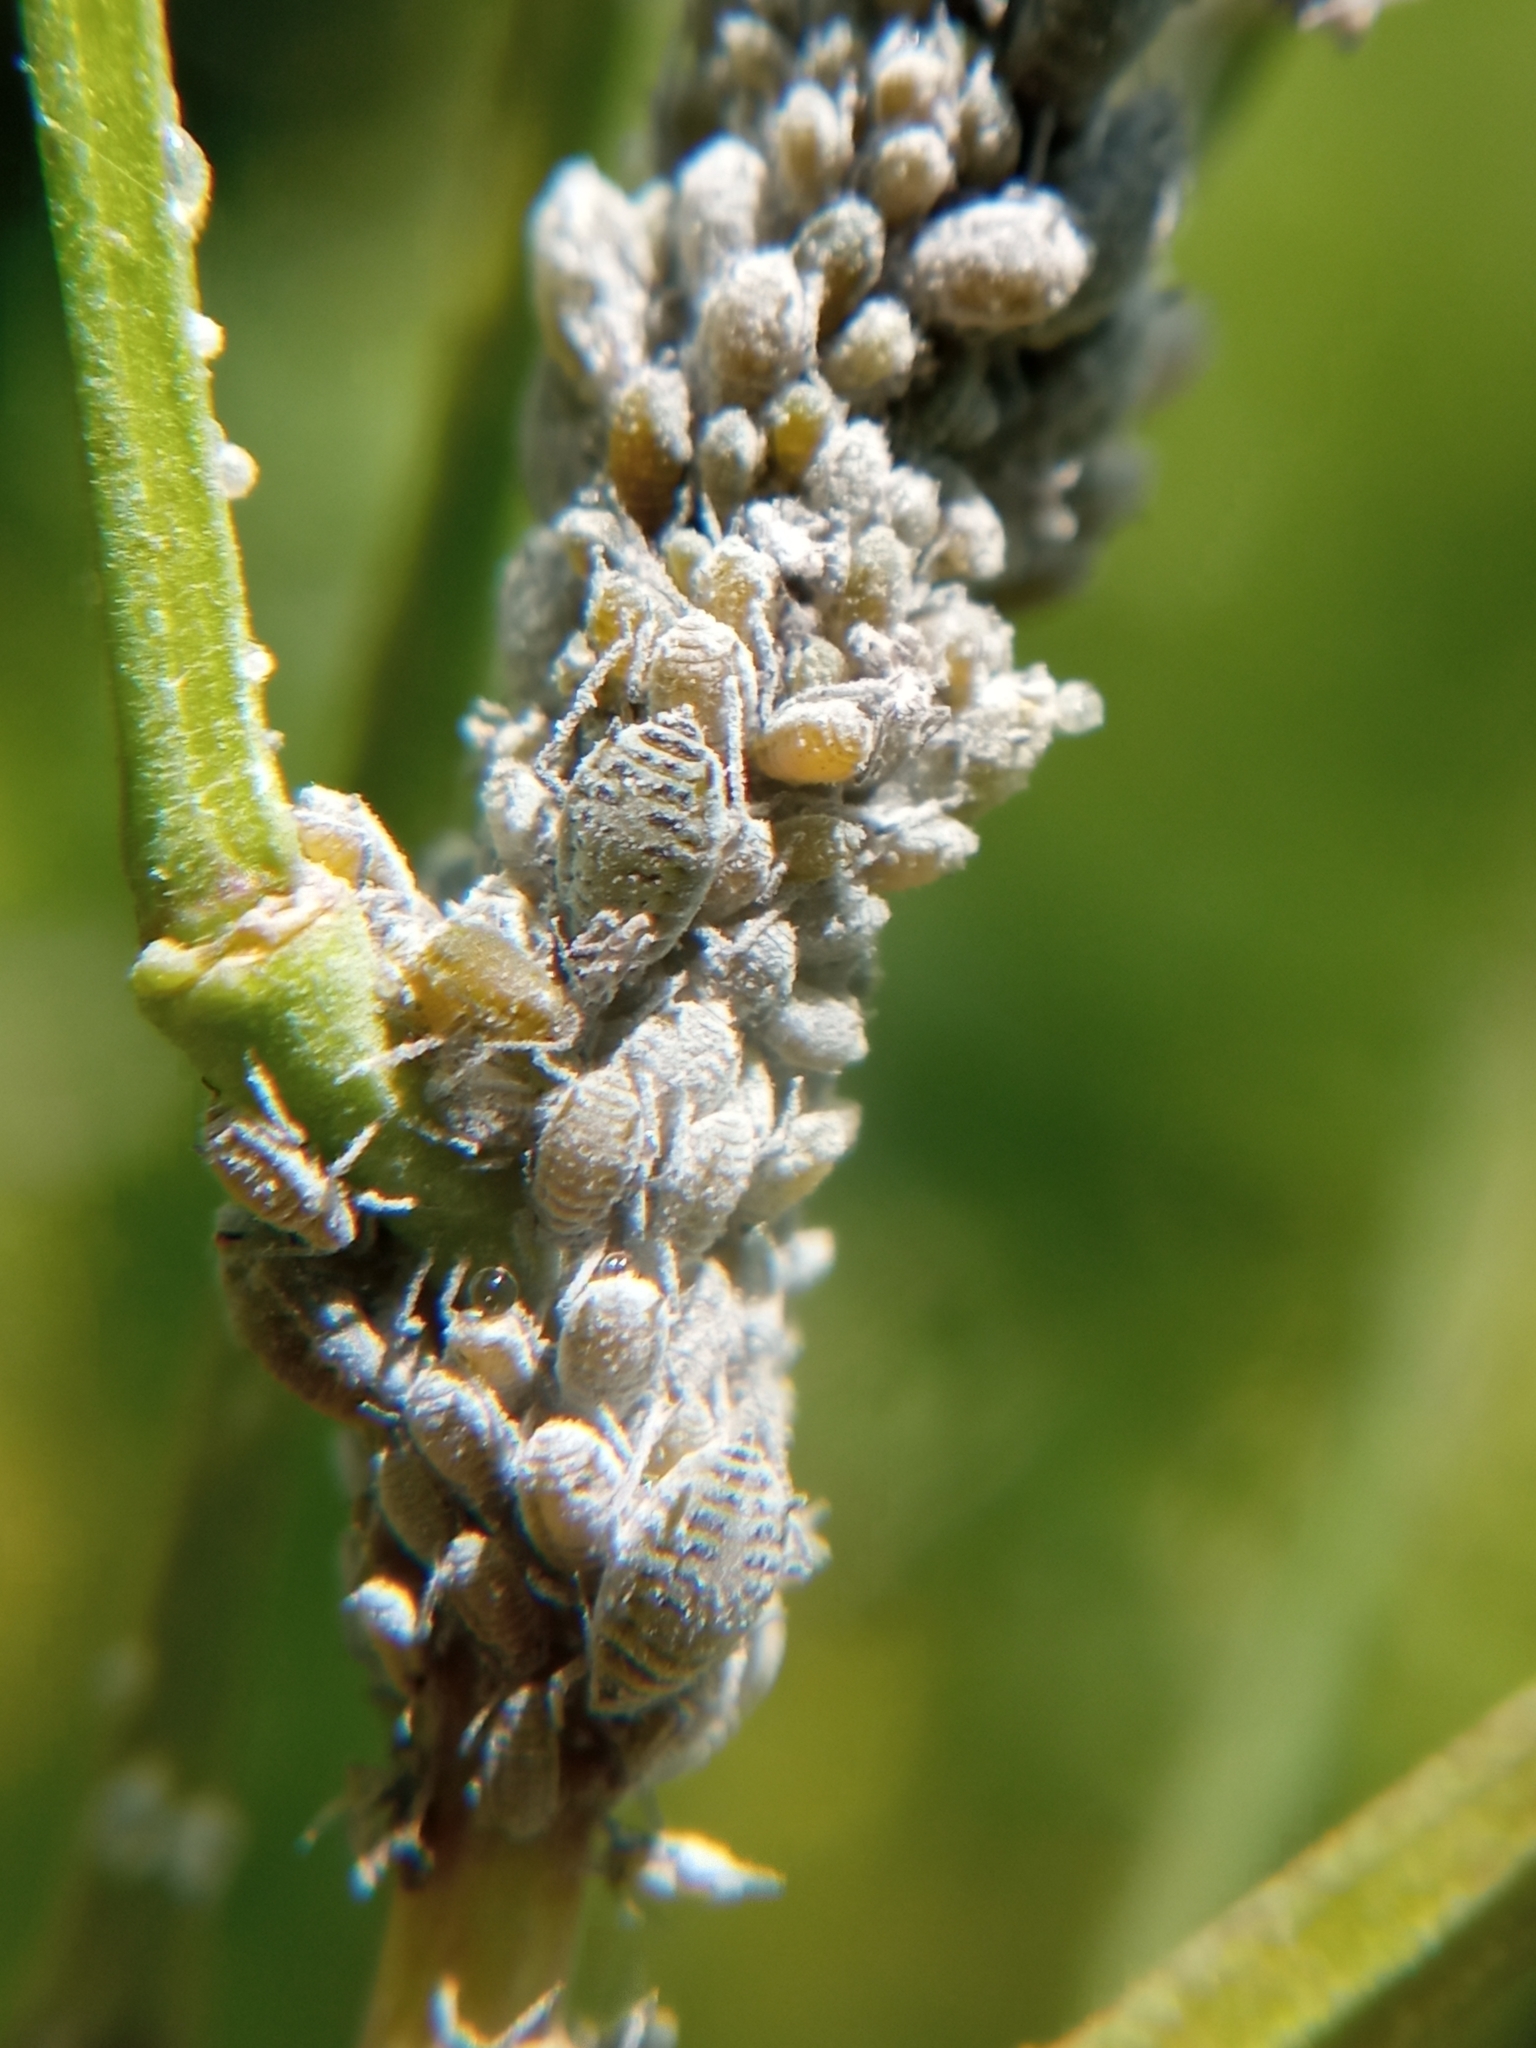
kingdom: Animalia
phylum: Arthropoda
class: Insecta
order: Hemiptera
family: Aphididae
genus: Brevicoryne
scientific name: Brevicoryne brassicae
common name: Cabbage aphid
